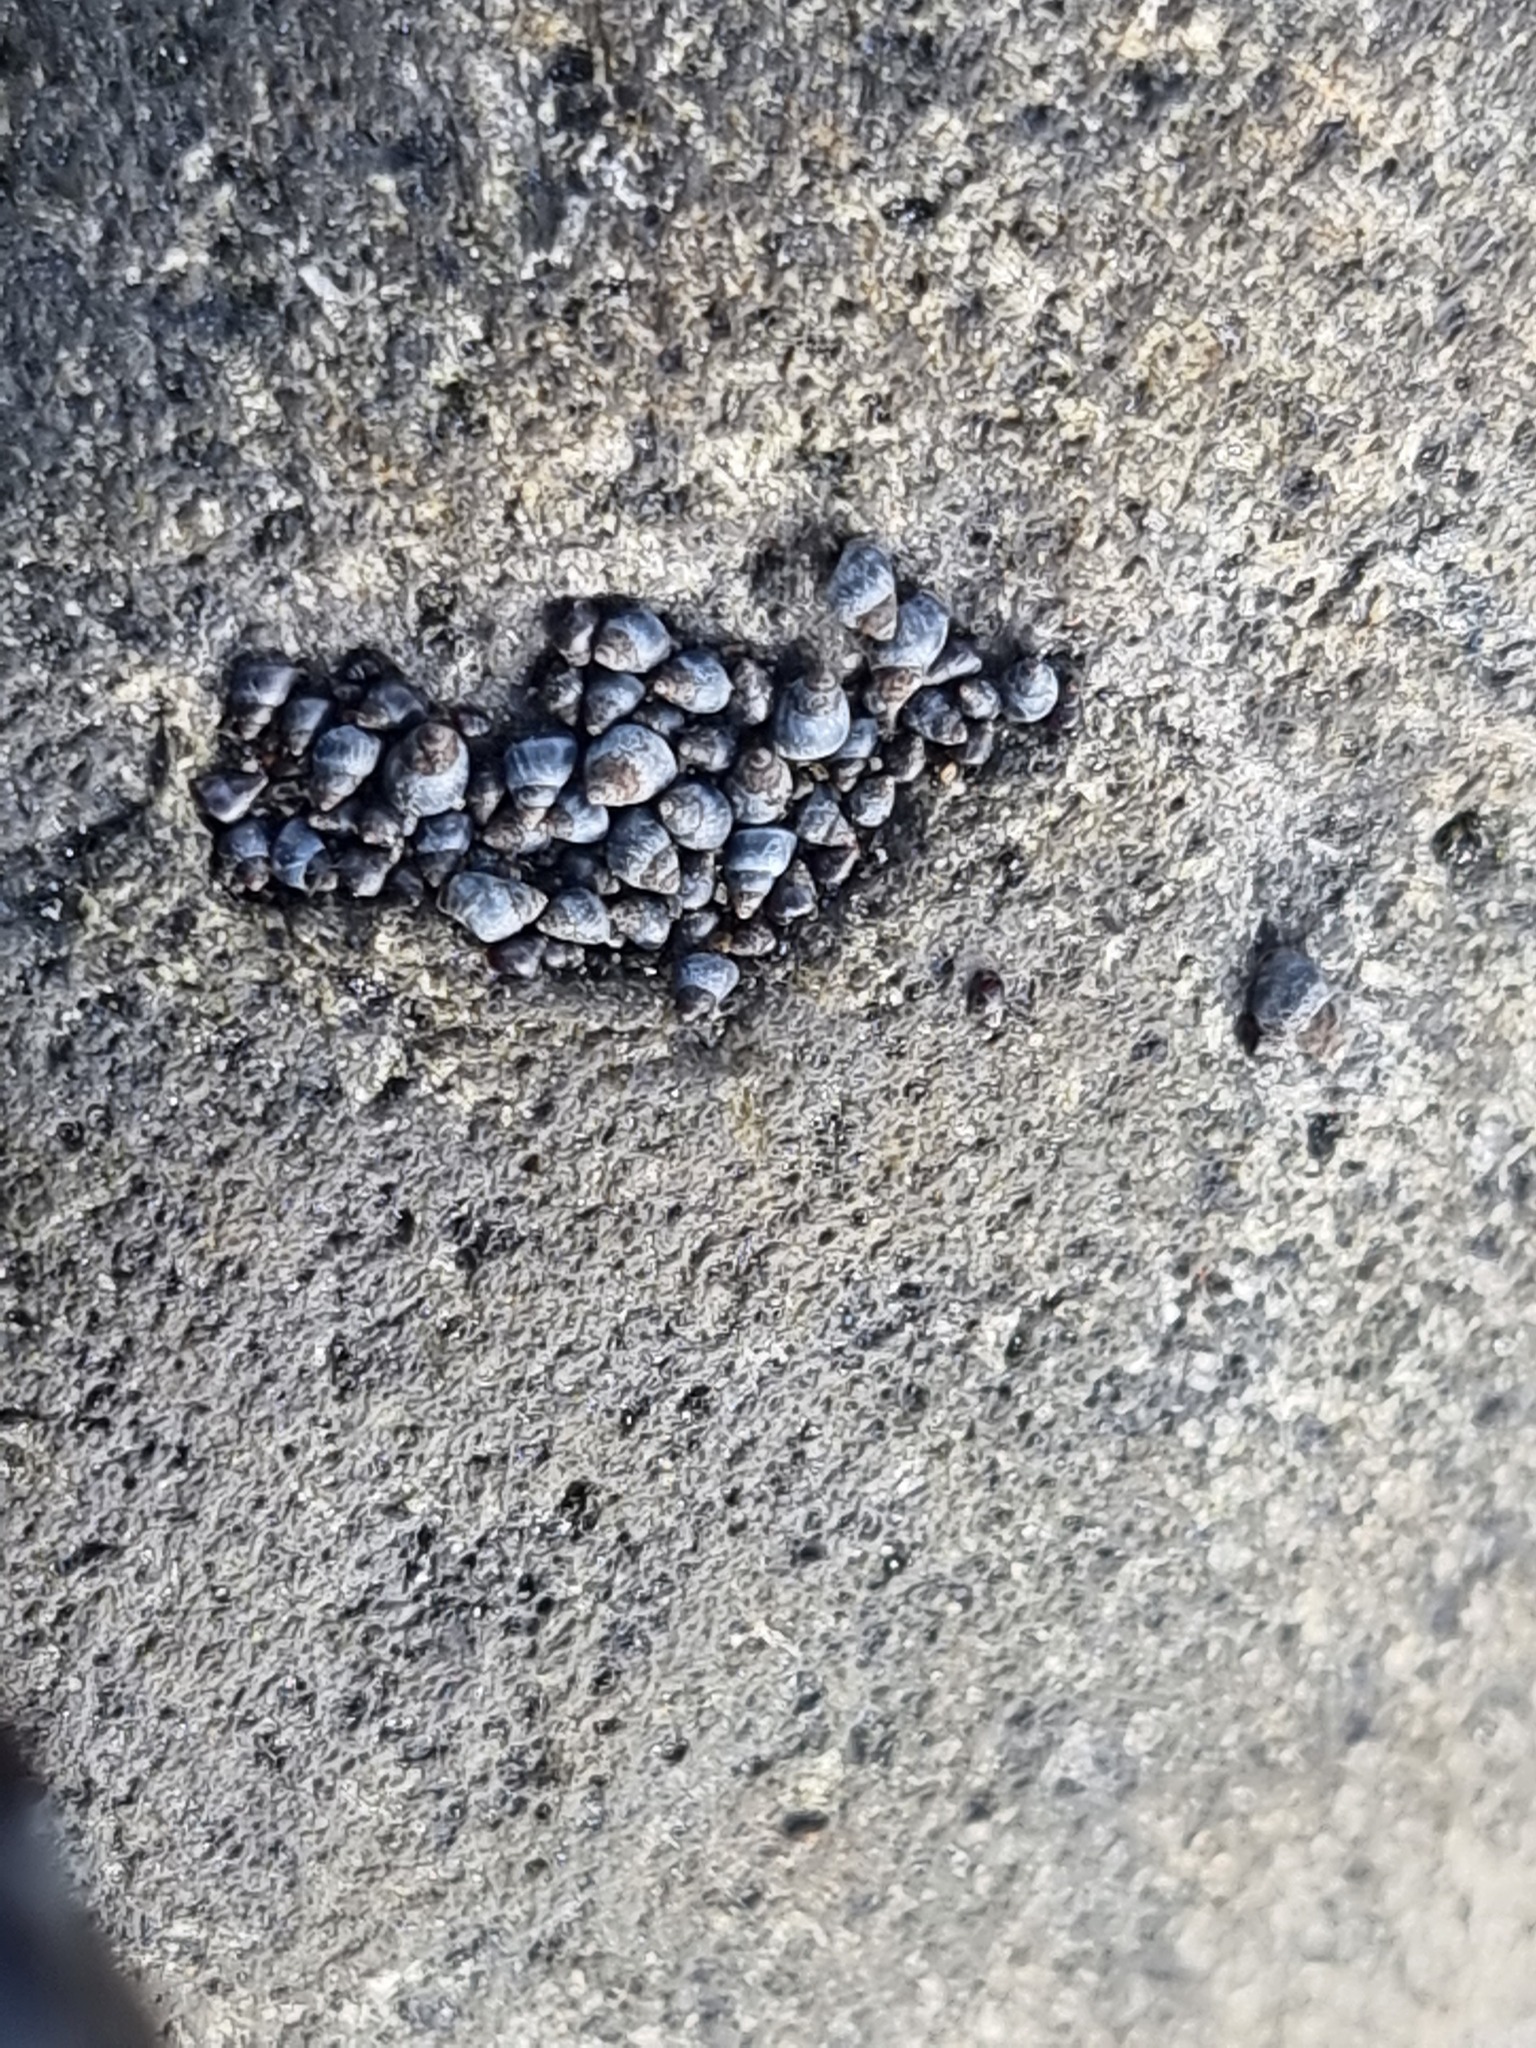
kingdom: Animalia
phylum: Mollusca
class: Gastropoda
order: Littorinimorpha
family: Littorinidae
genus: Austrolittorina
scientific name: Austrolittorina antipodum
